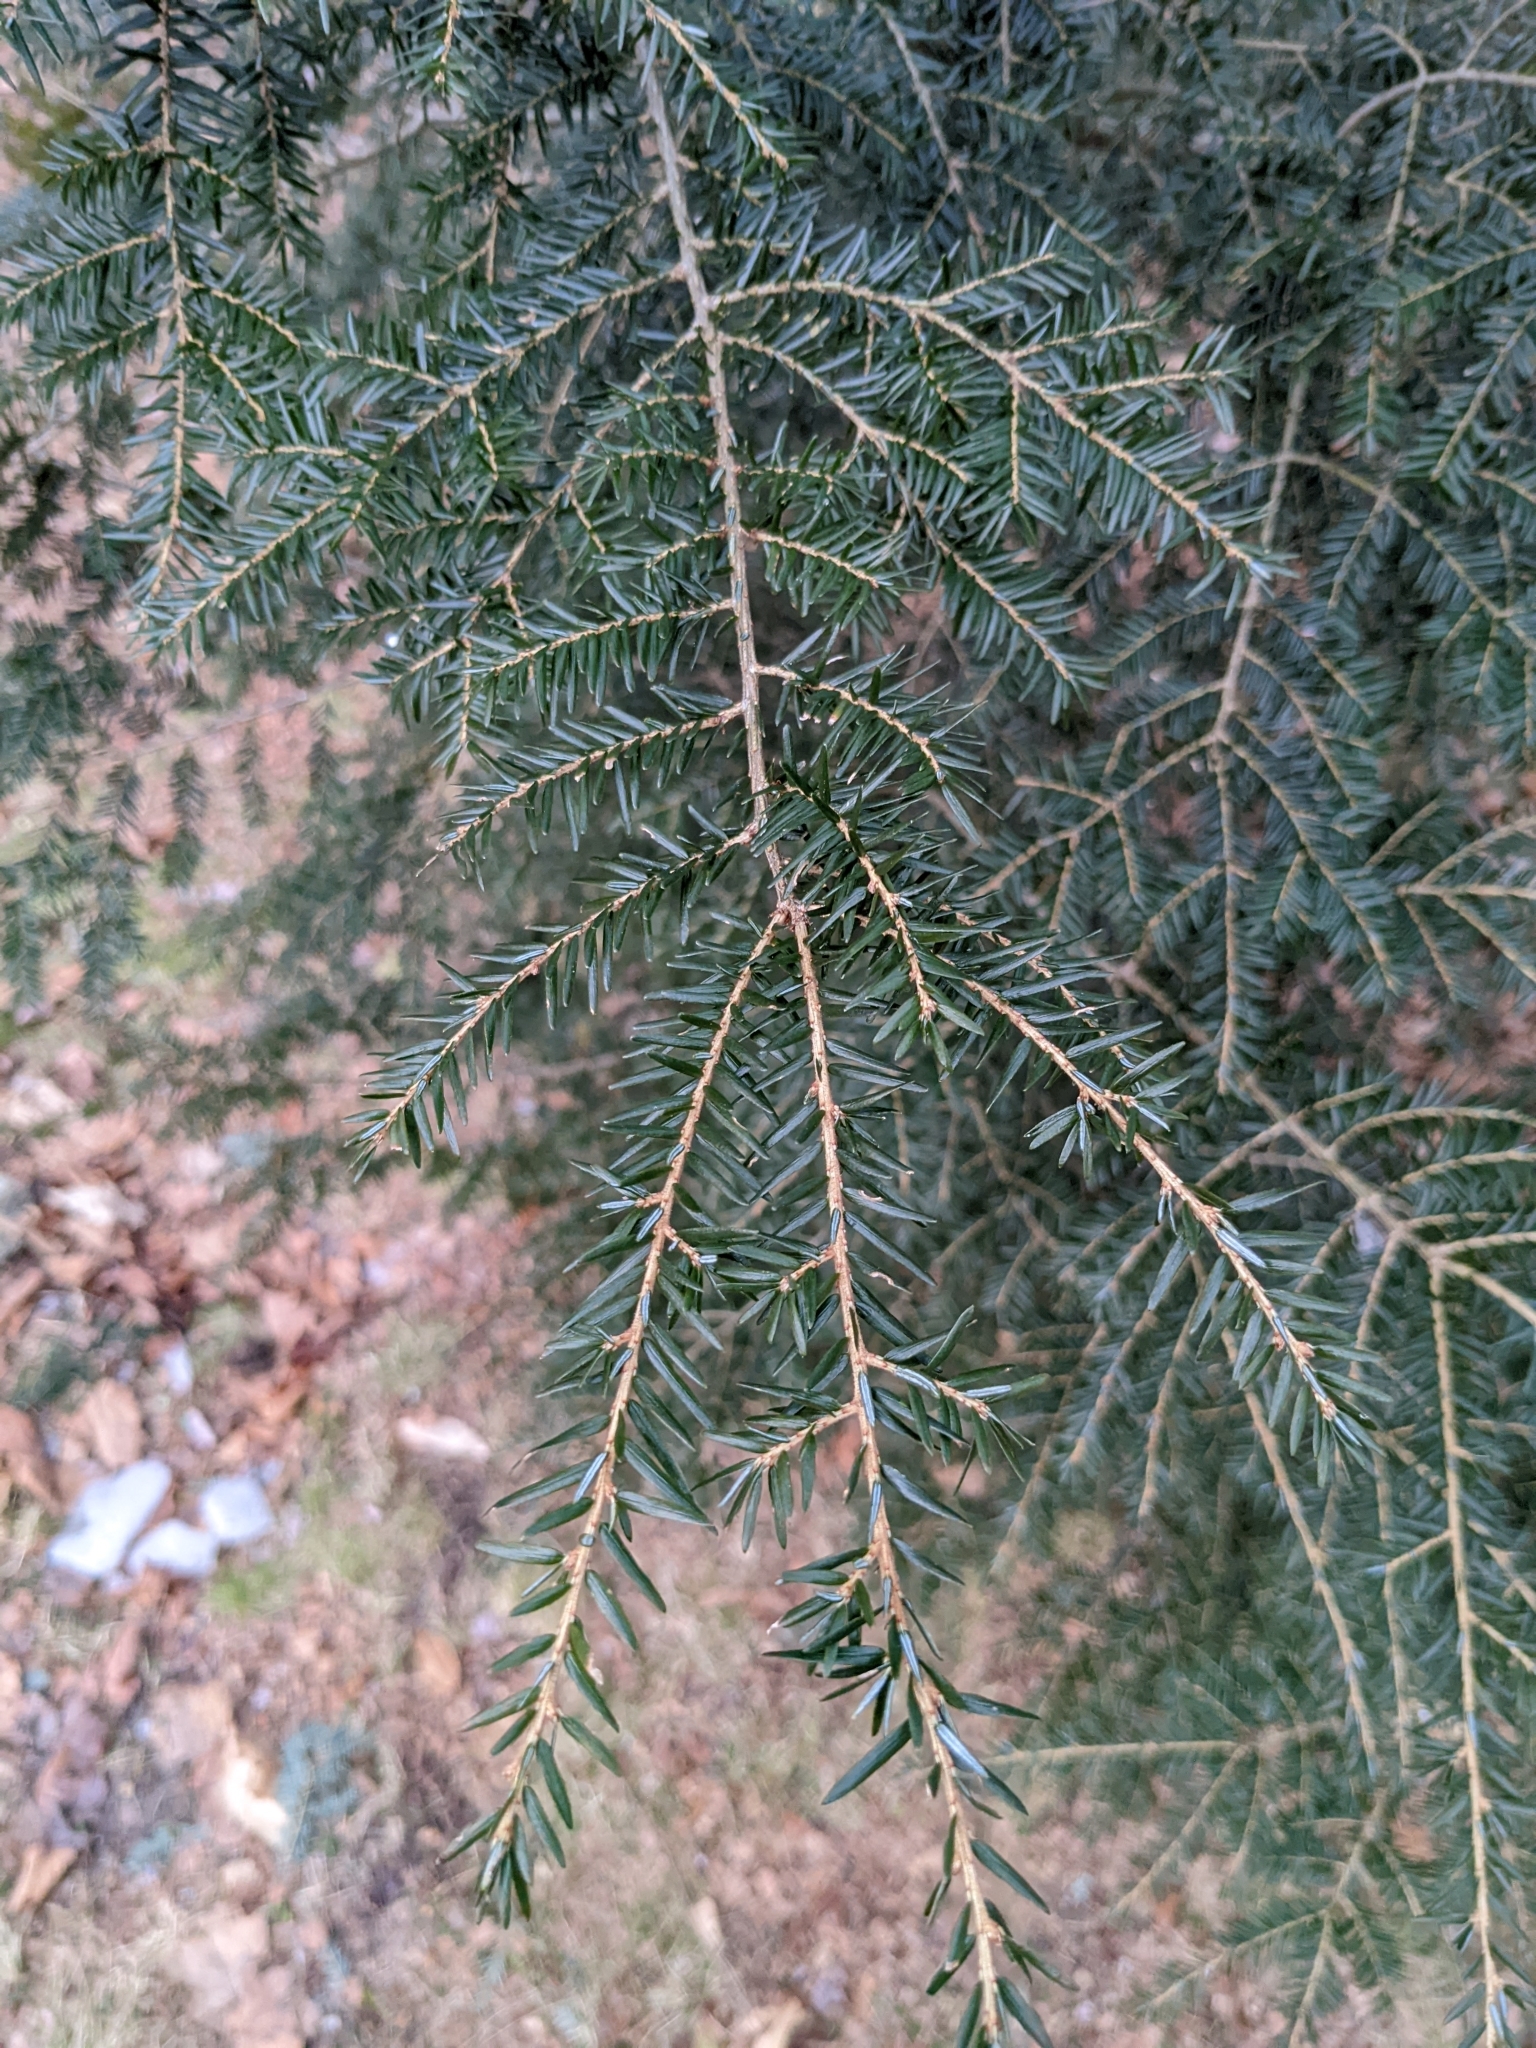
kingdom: Plantae
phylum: Tracheophyta
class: Pinopsida
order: Pinales
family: Pinaceae
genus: Tsuga
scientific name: Tsuga canadensis
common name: Eastern hemlock
